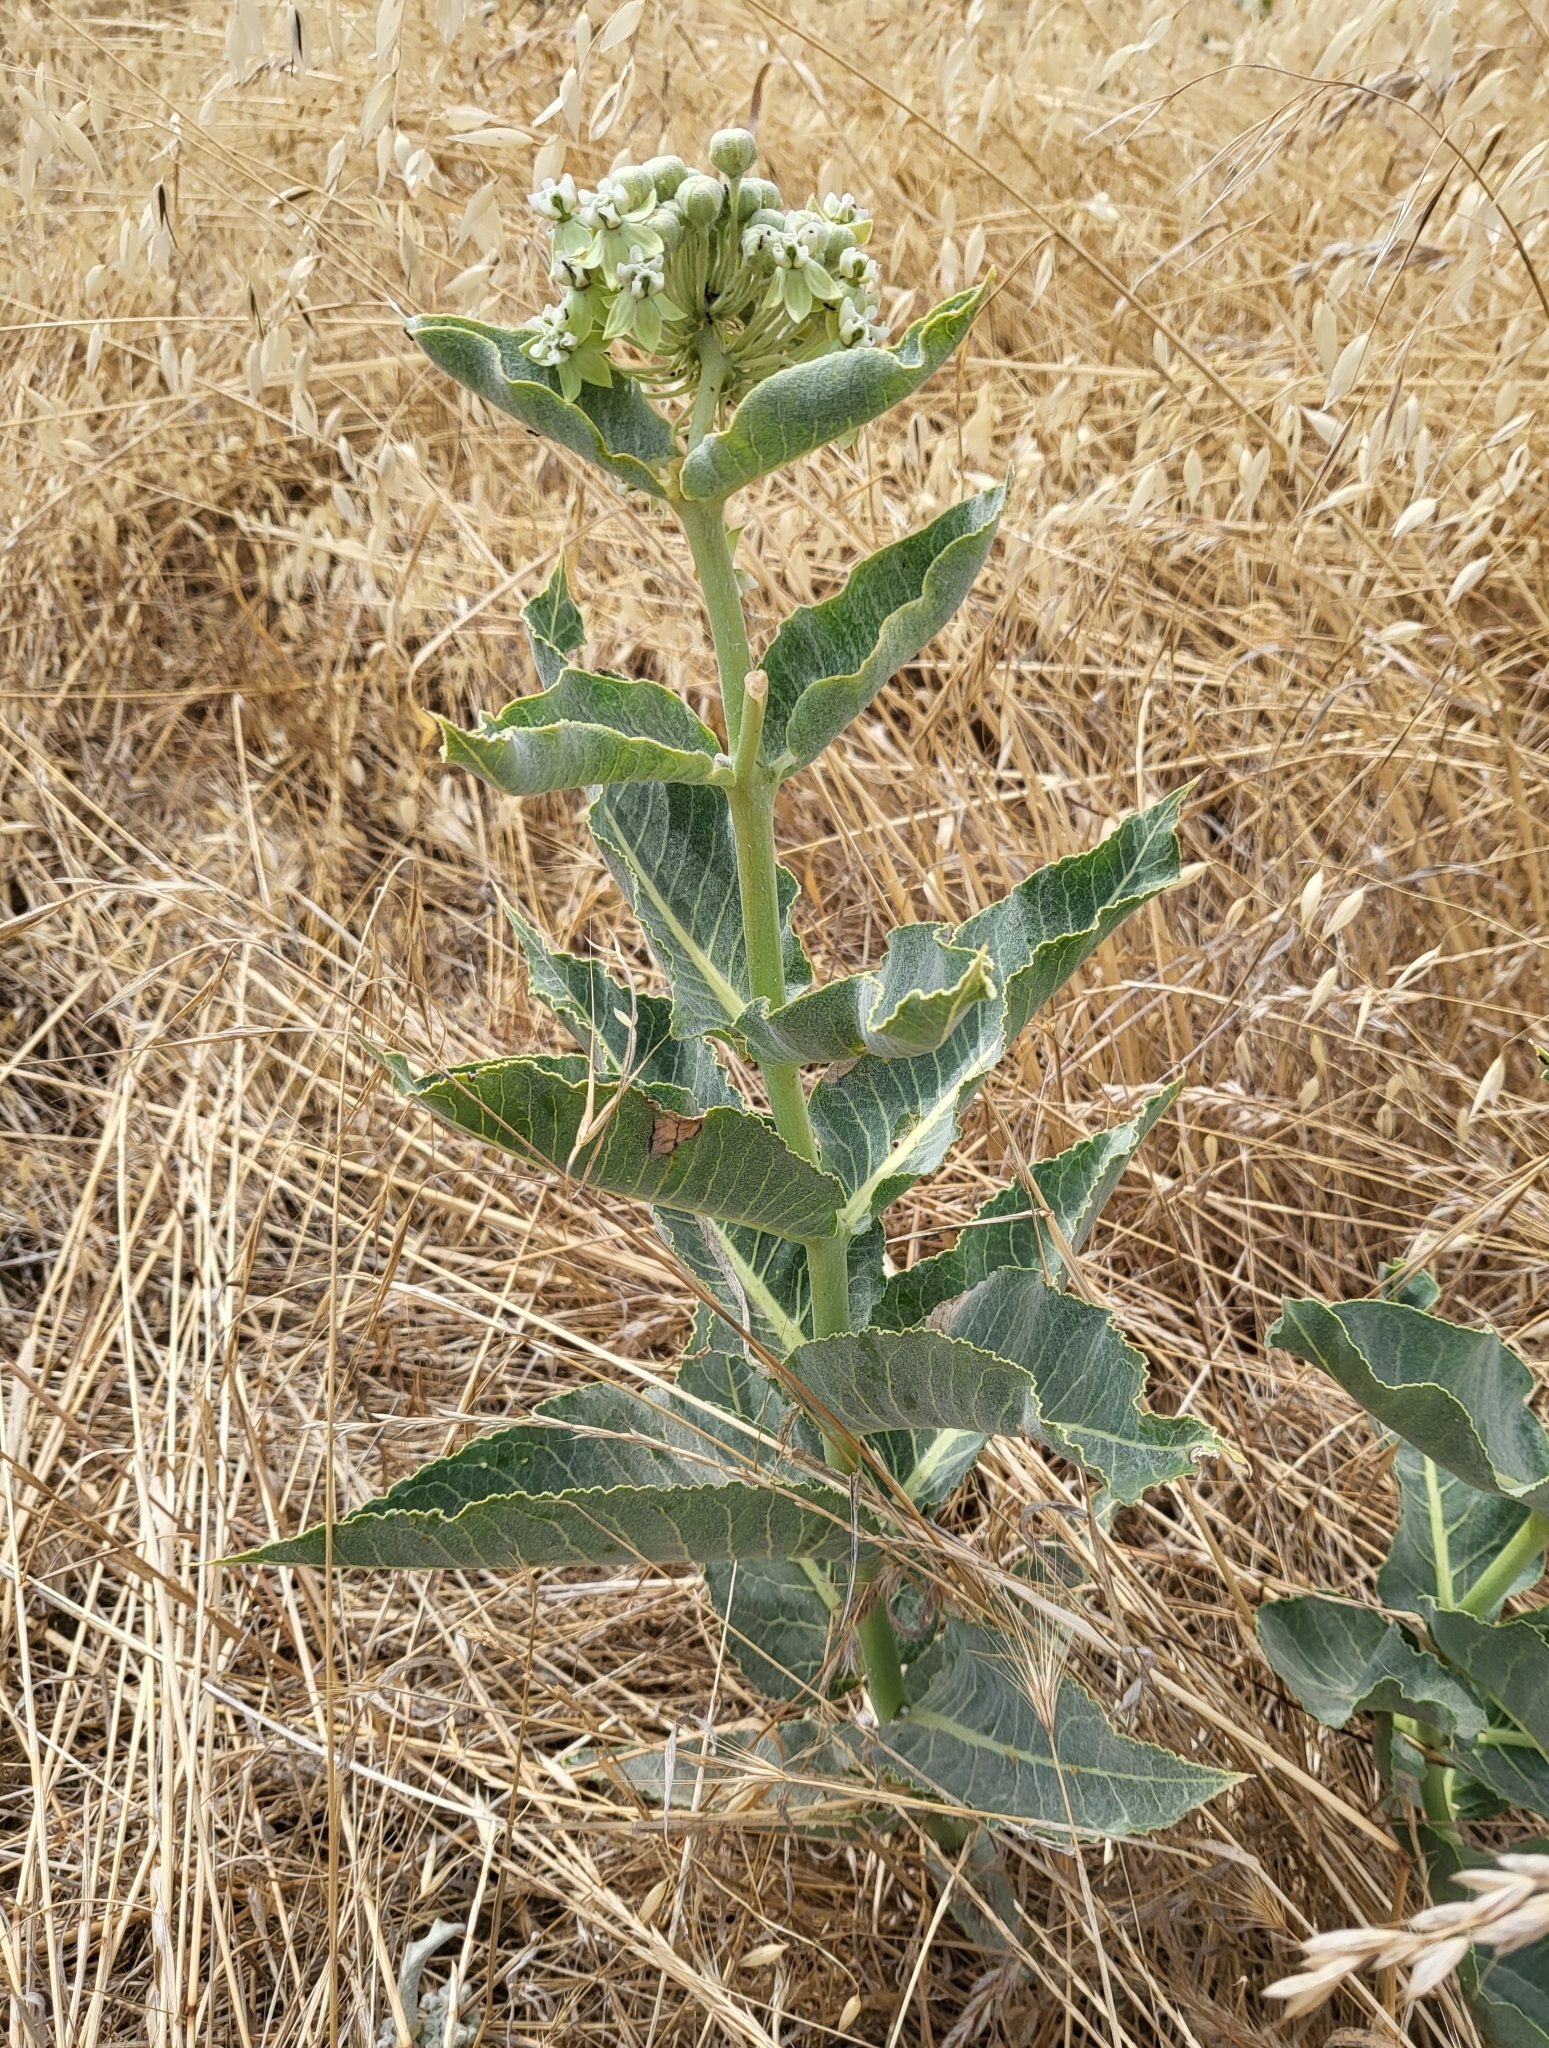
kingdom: Animalia
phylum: Arthropoda
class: Insecta
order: Hemiptera
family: Aphididae
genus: Aphis
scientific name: Aphis nerii
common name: Oleander aphid
